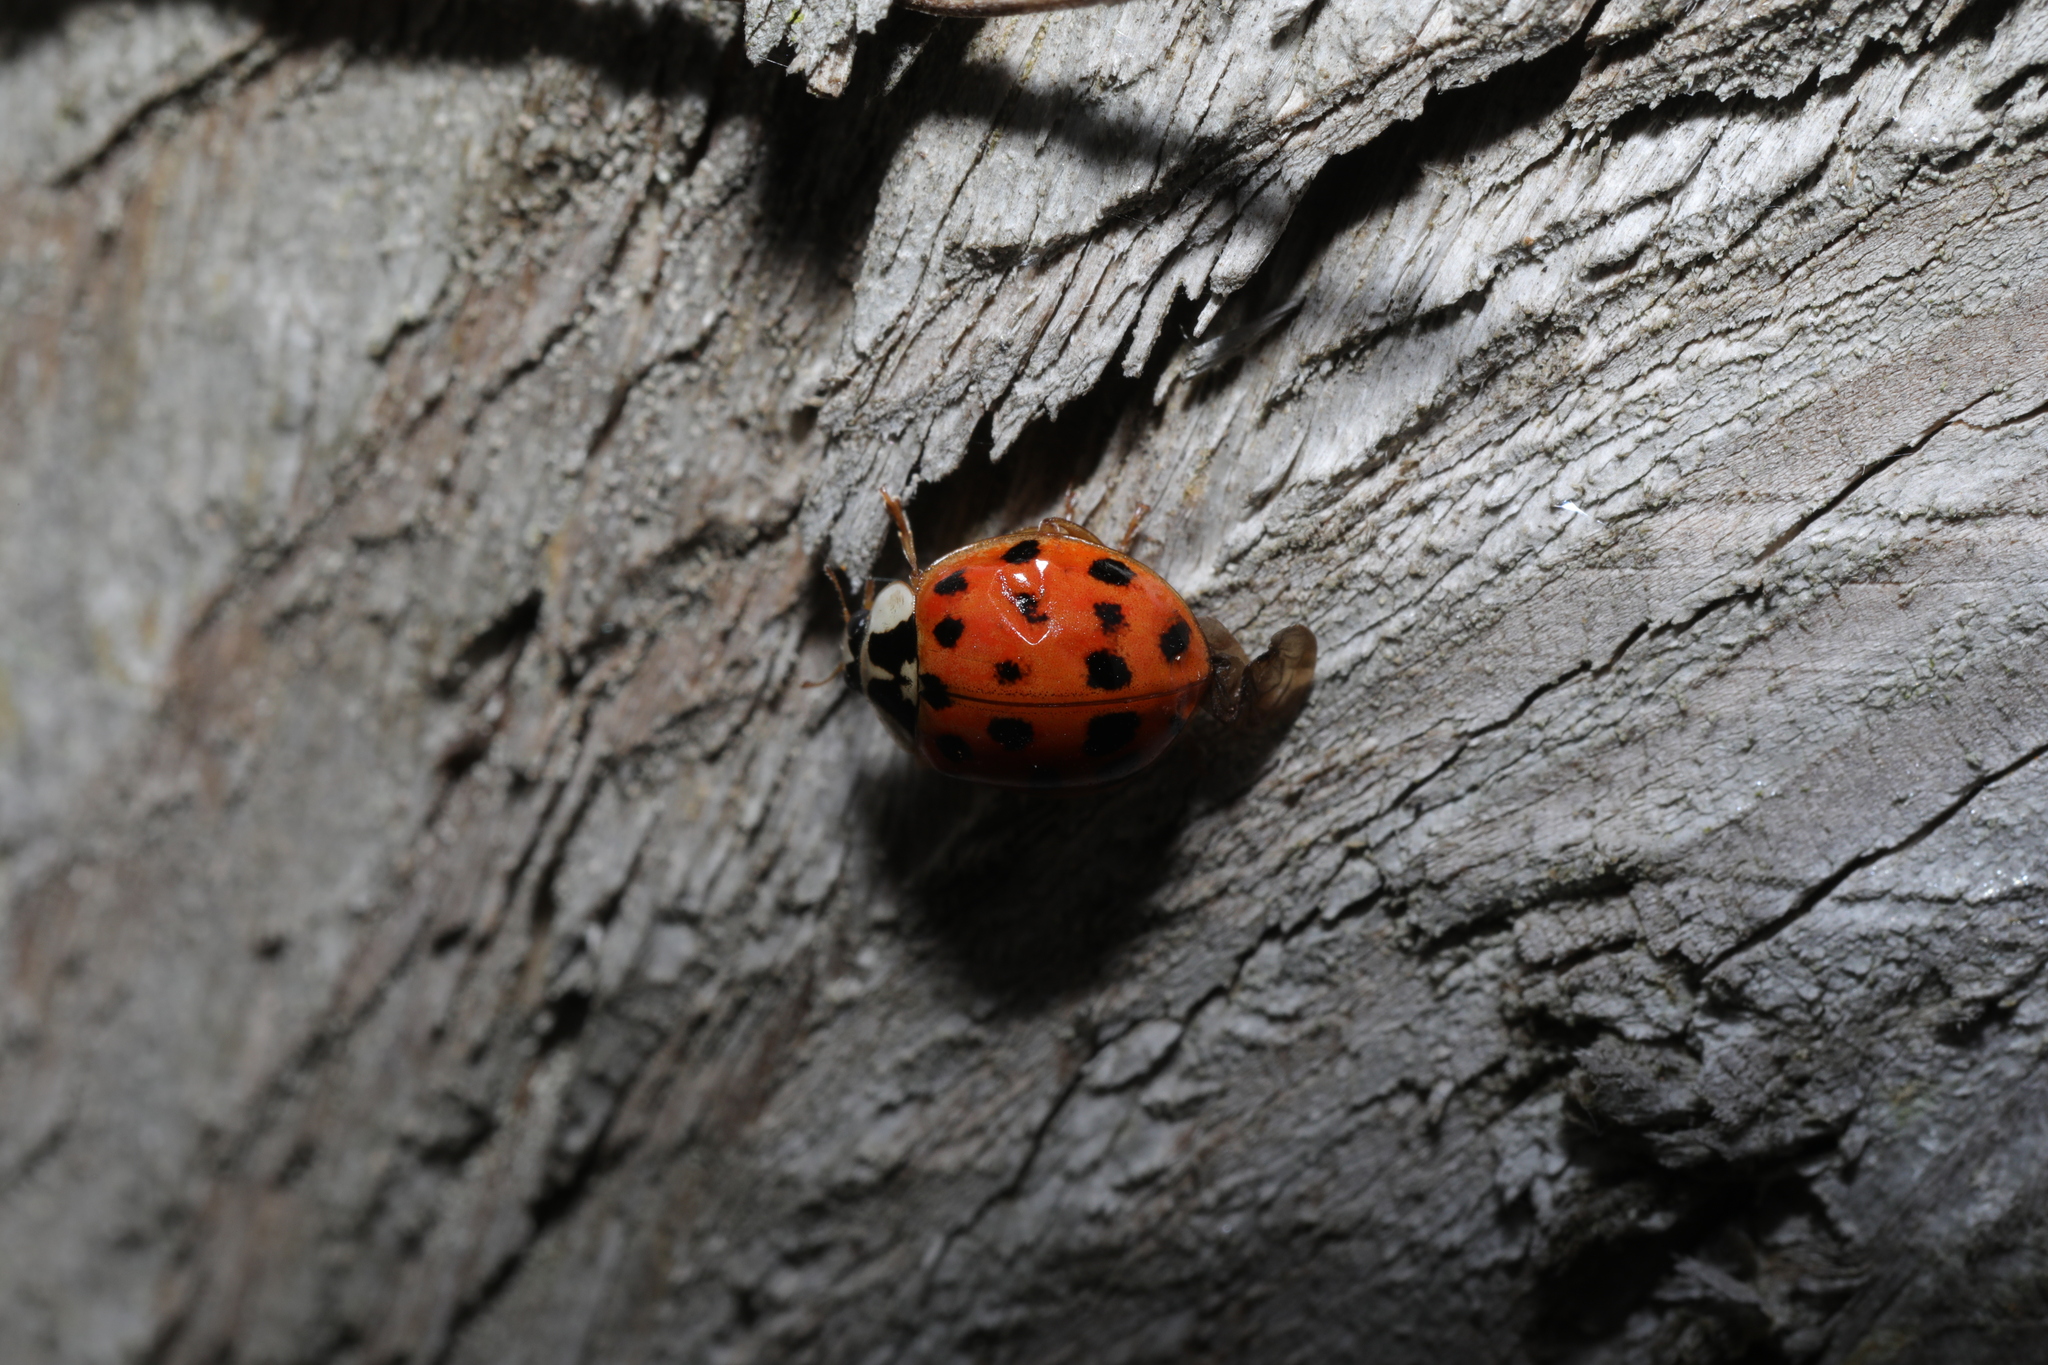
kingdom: Animalia
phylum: Arthropoda
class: Insecta
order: Coleoptera
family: Coccinellidae
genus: Harmonia
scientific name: Harmonia axyridis
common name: Harlequin ladybird
